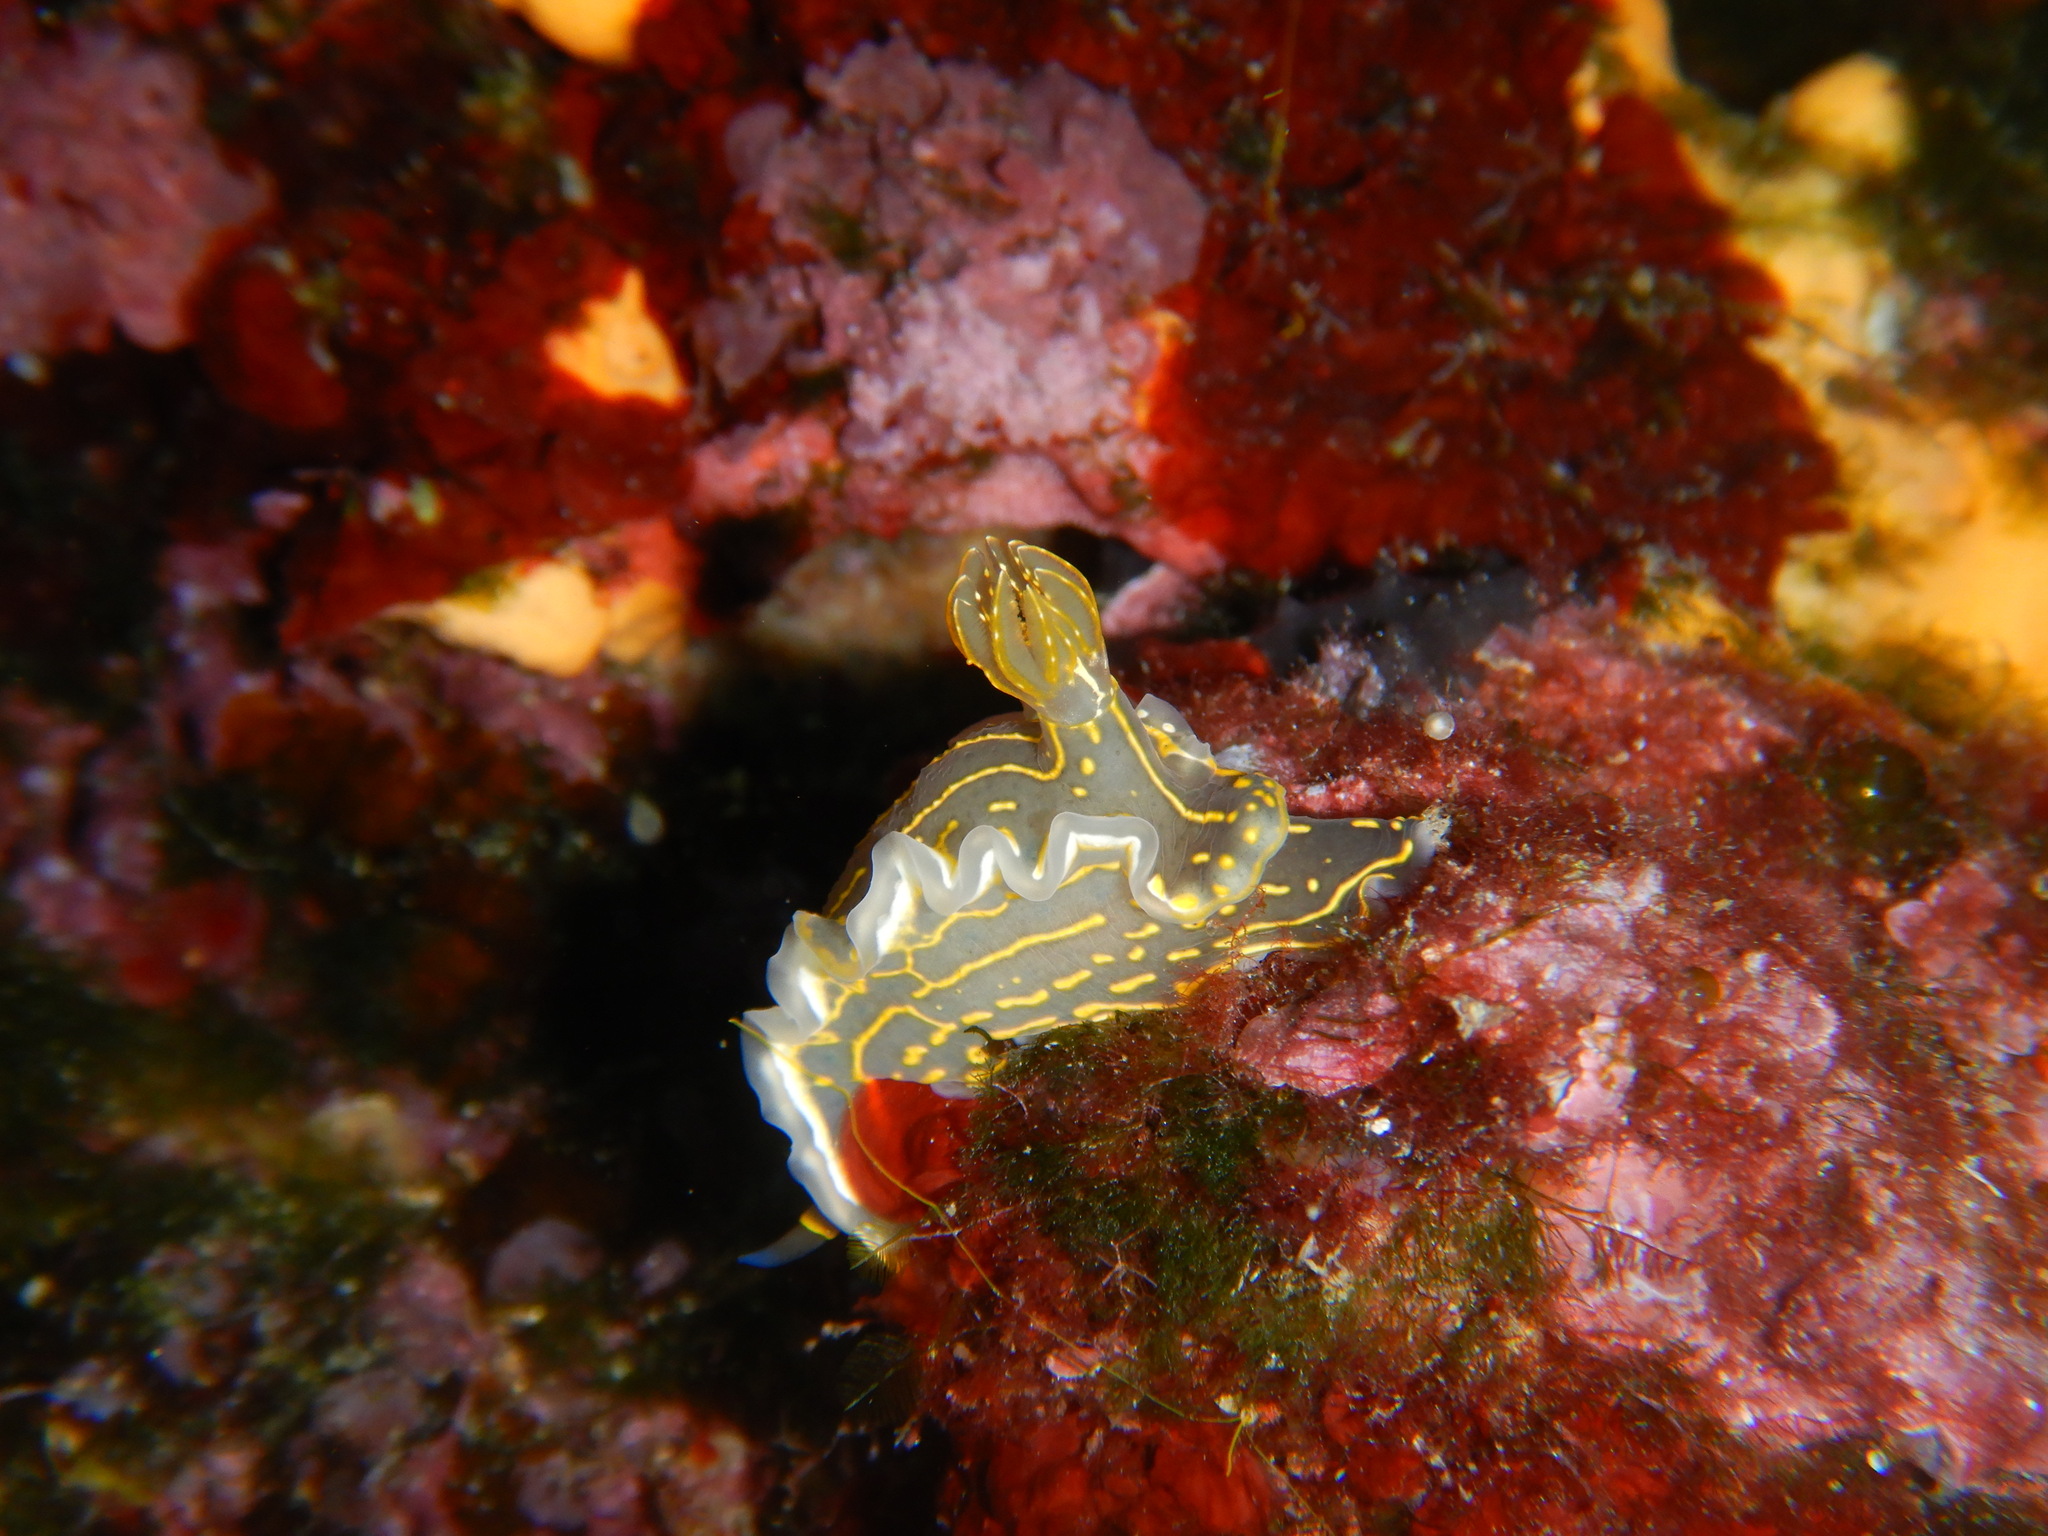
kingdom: Animalia
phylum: Mollusca
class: Gastropoda
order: Nudibranchia
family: Chromodorididae
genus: Felimare
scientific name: Felimare picta
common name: Giant doris
